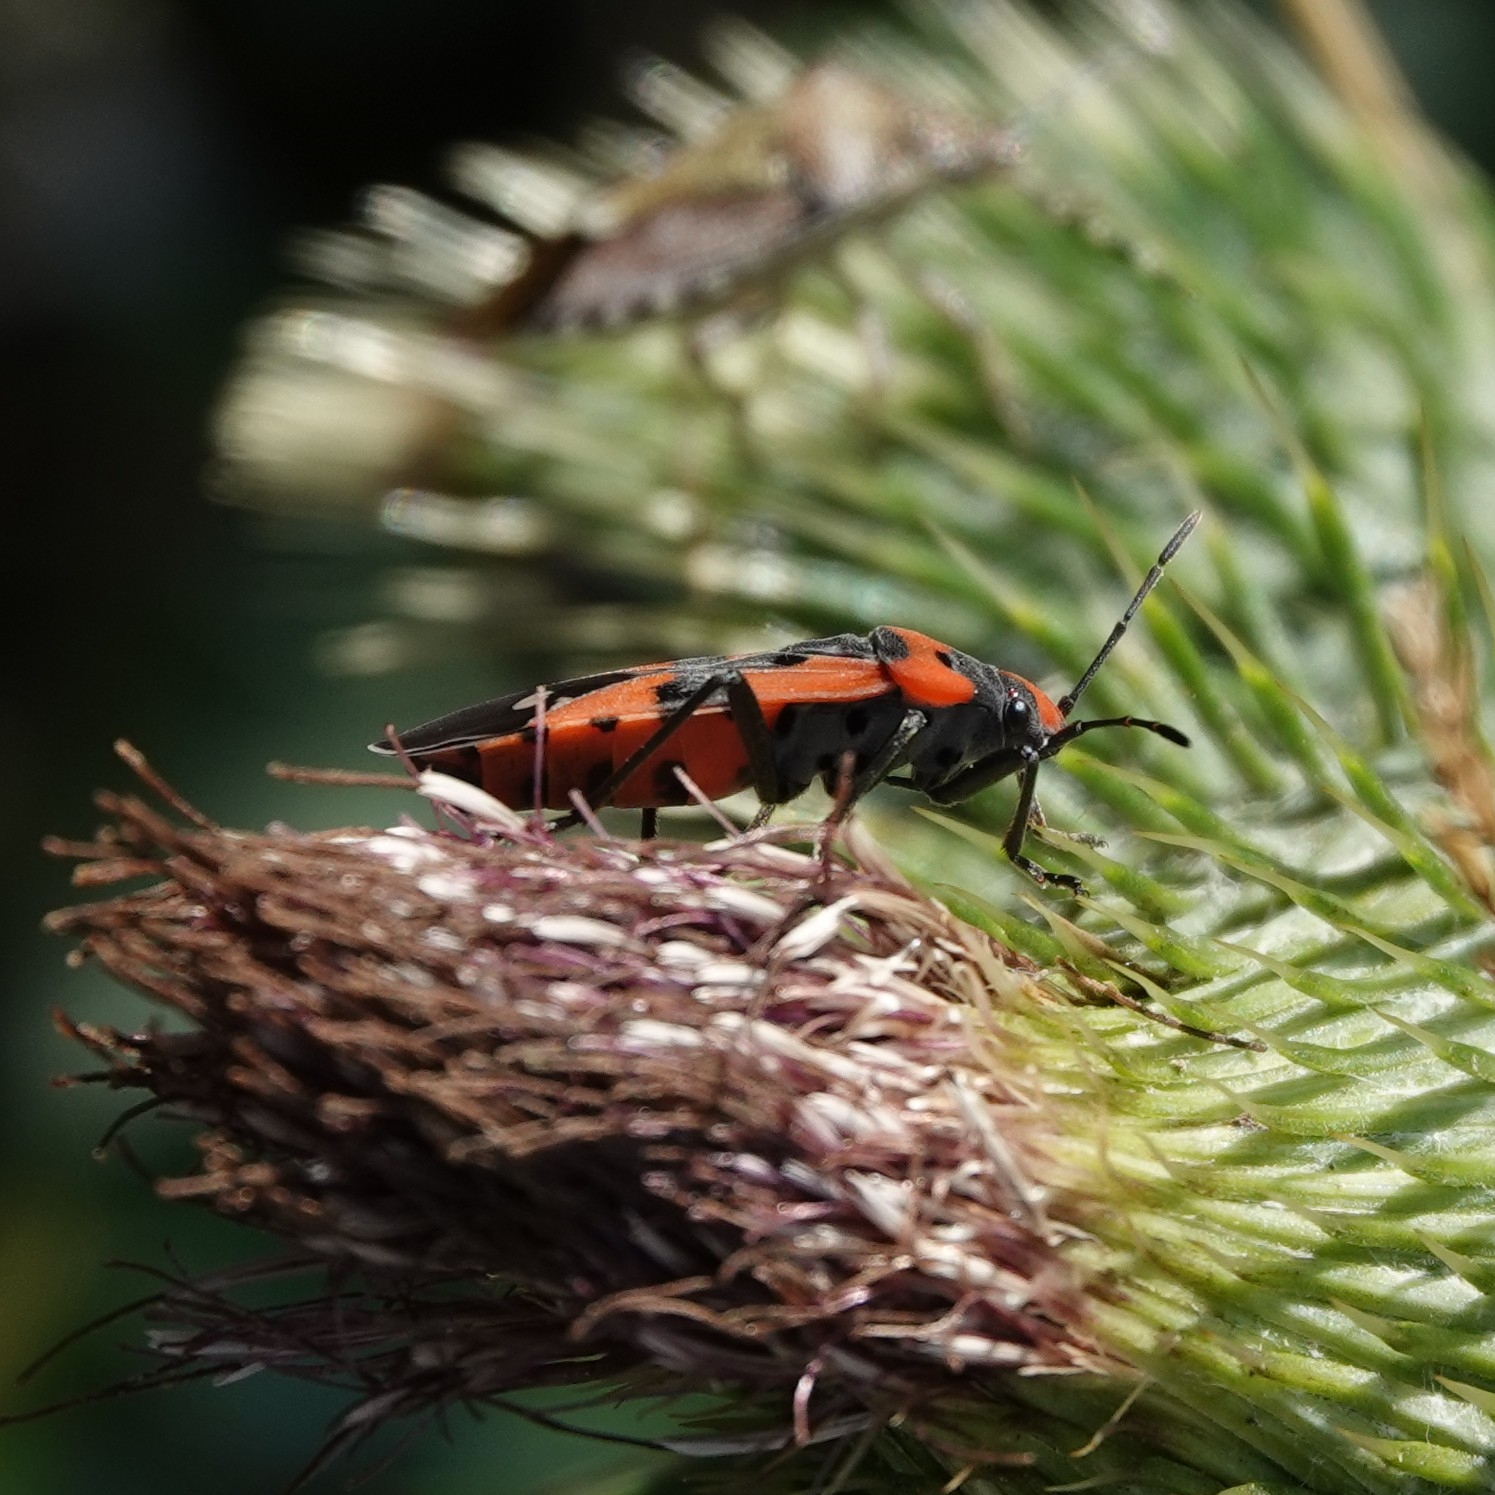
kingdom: Animalia
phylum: Arthropoda
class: Insecta
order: Hemiptera
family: Lygaeidae
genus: Lygaeus
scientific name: Lygaeus equestris
